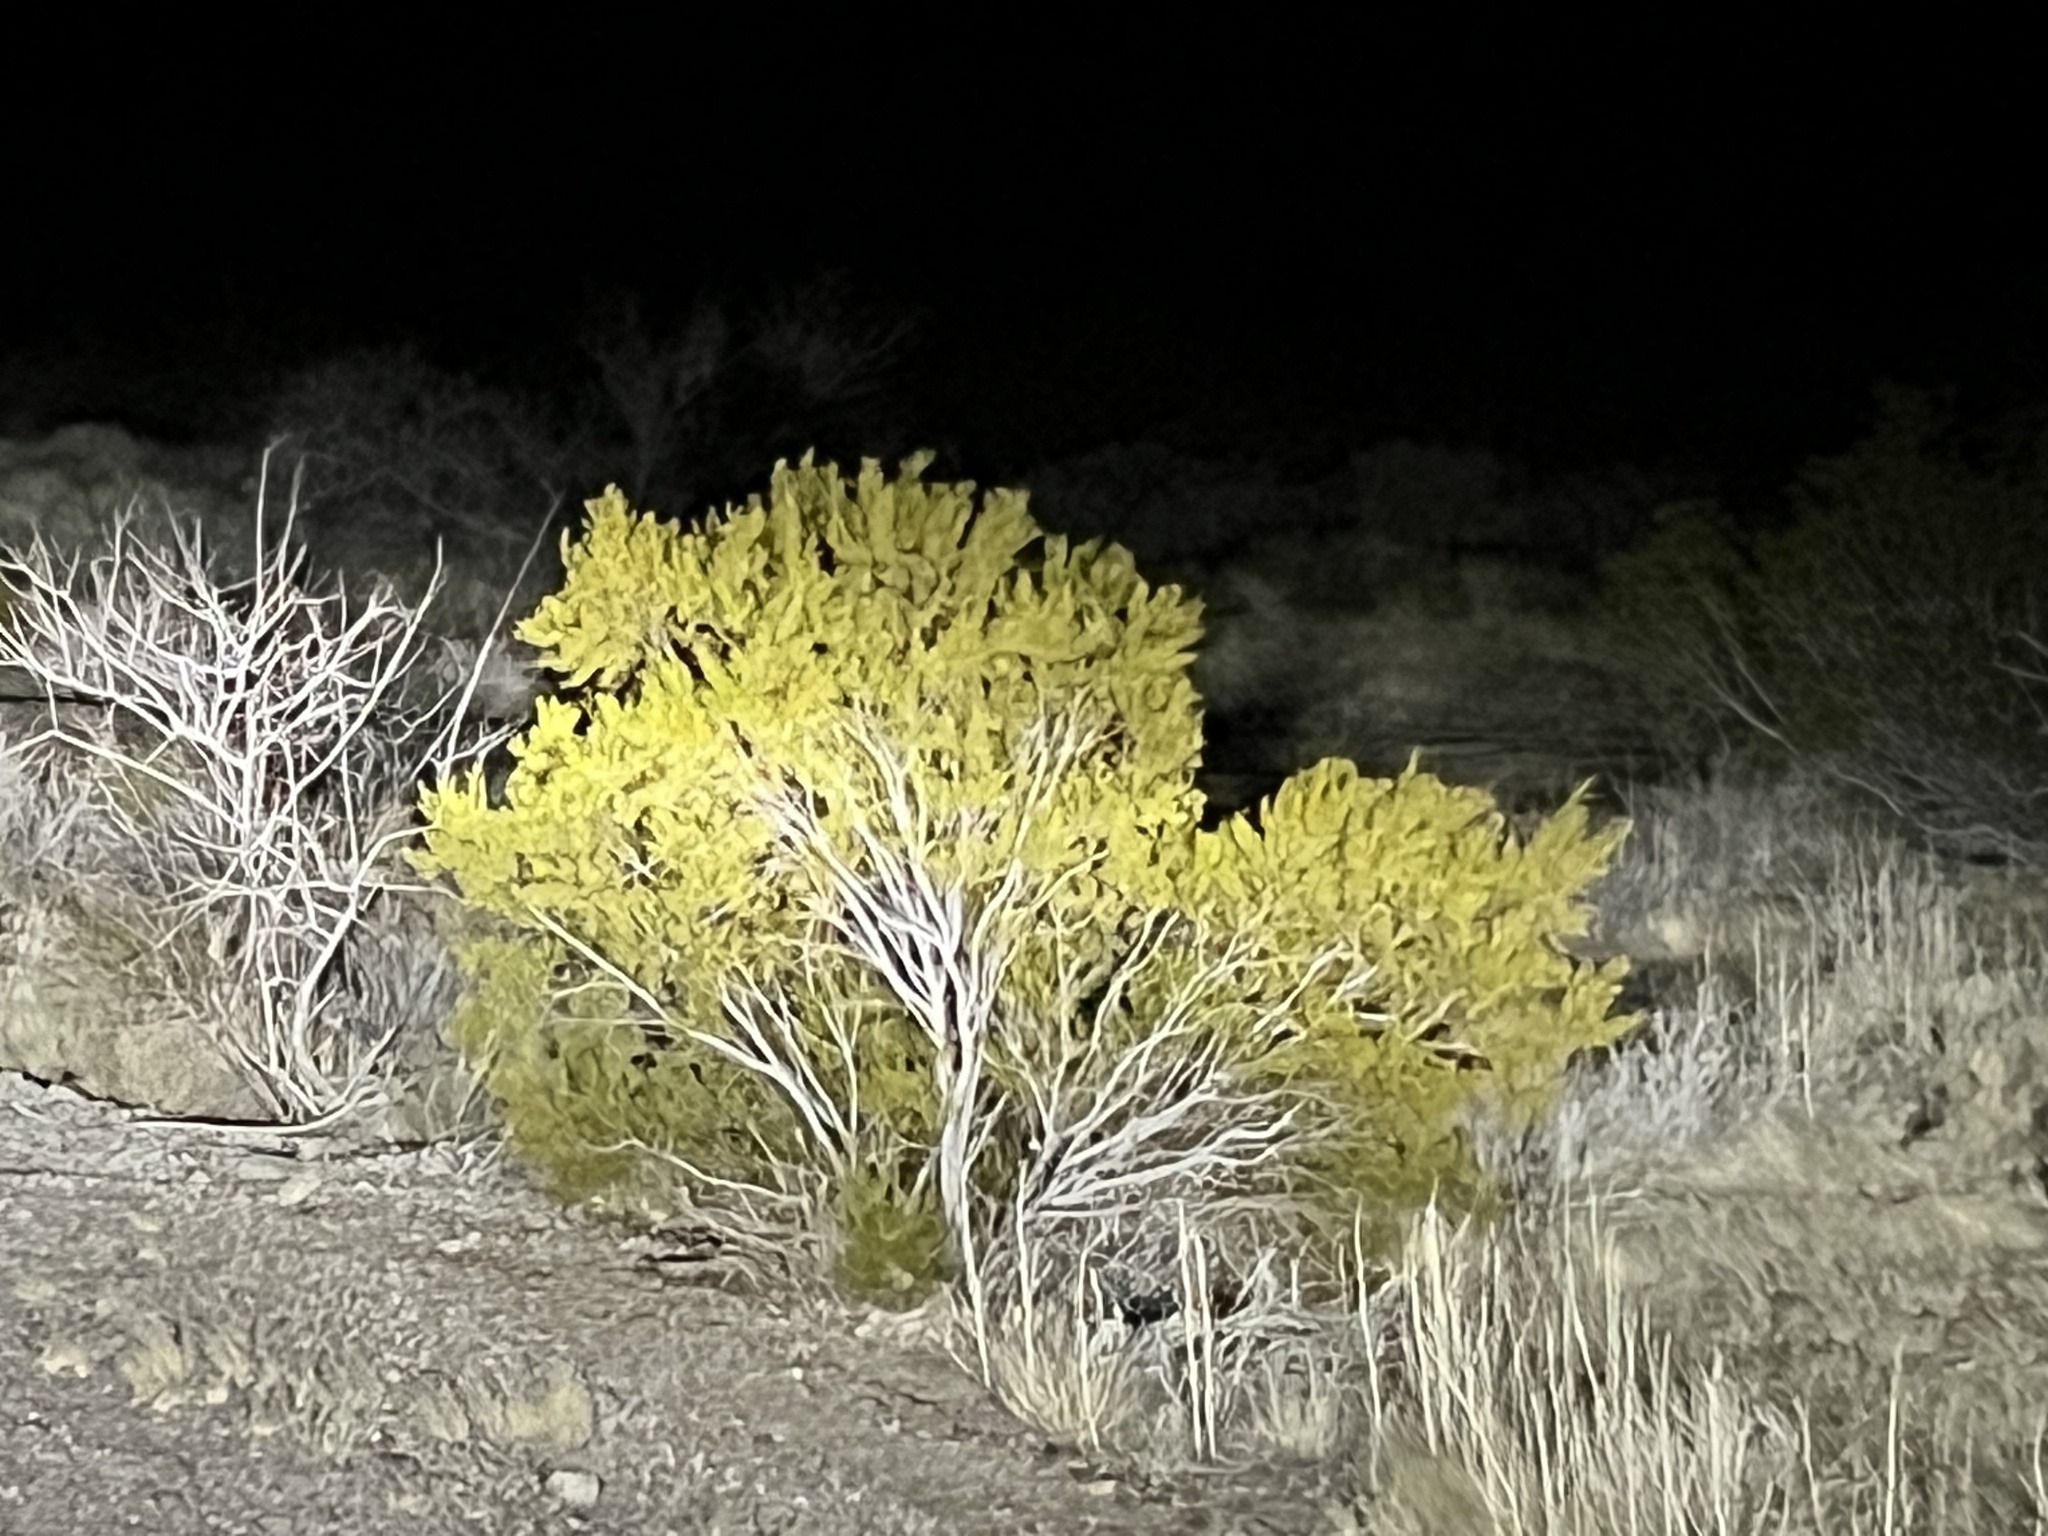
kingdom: Plantae
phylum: Tracheophyta
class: Magnoliopsida
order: Zygophyllales
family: Zygophyllaceae
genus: Larrea
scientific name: Larrea tridentata
